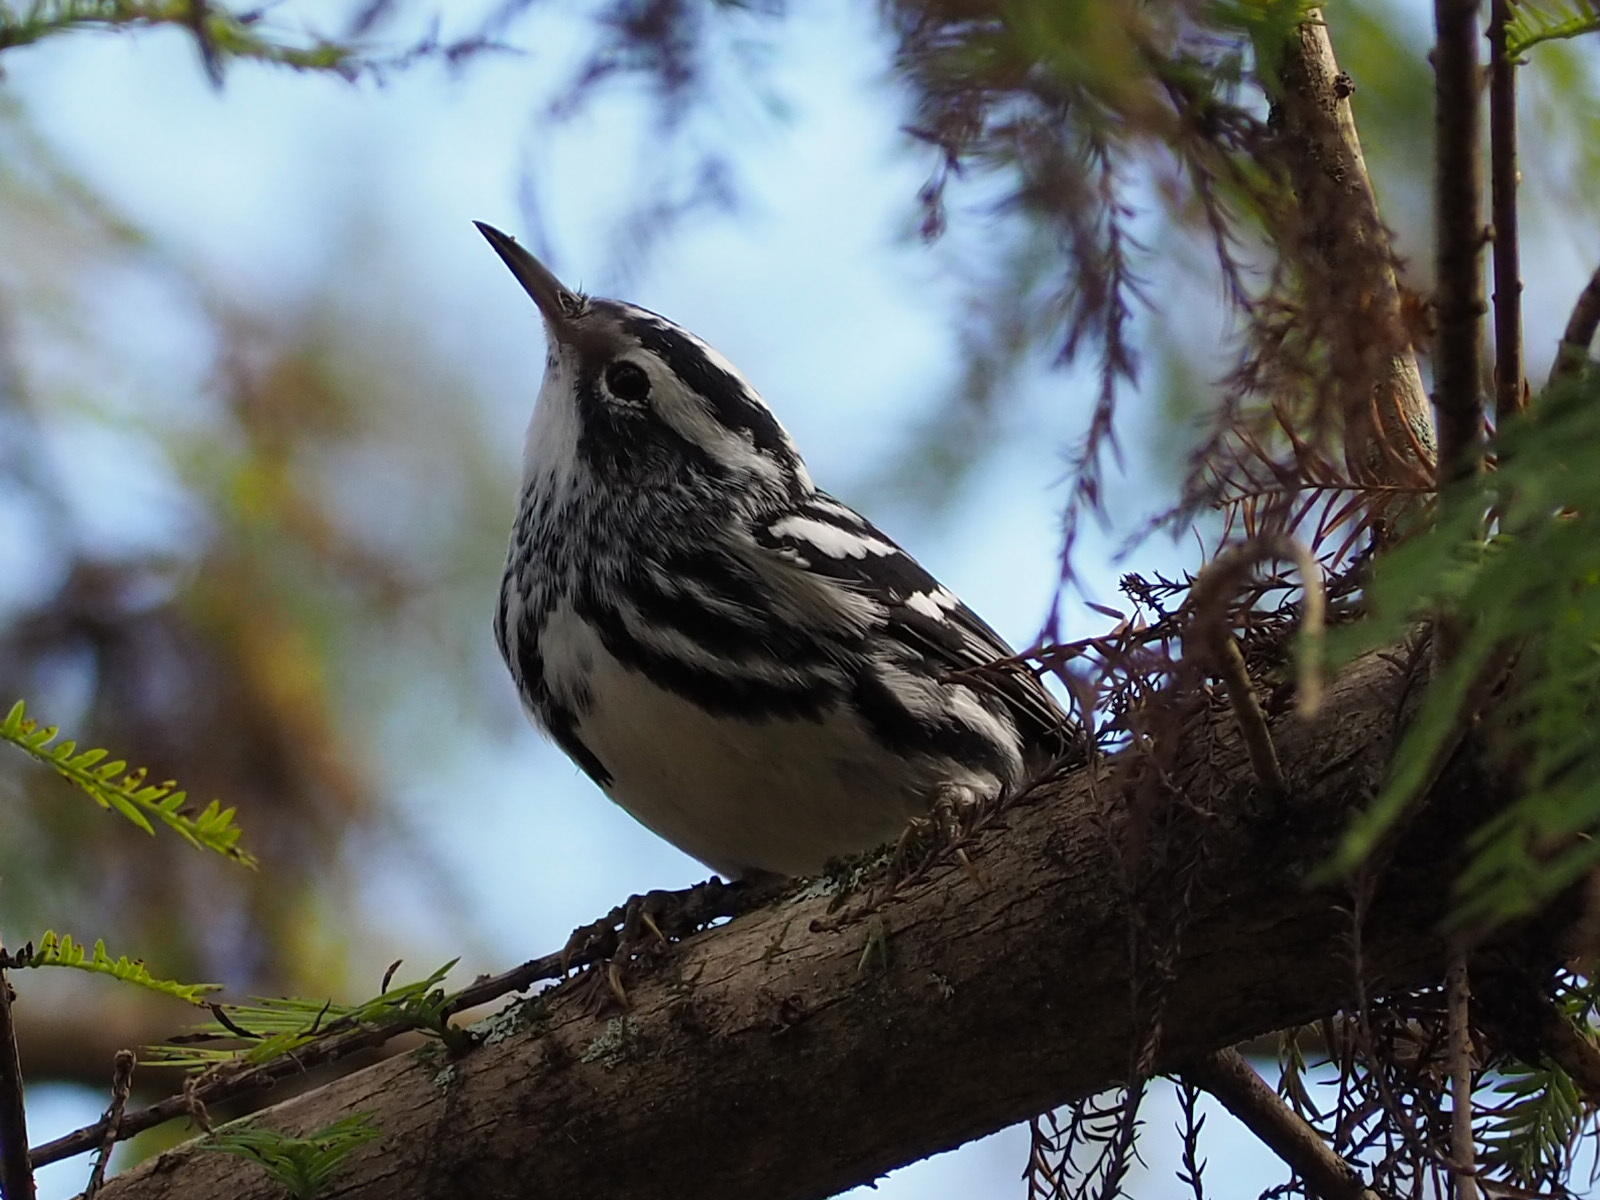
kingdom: Animalia
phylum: Chordata
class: Aves
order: Passeriformes
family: Parulidae
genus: Mniotilta
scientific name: Mniotilta varia
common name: Black-and-white warbler
